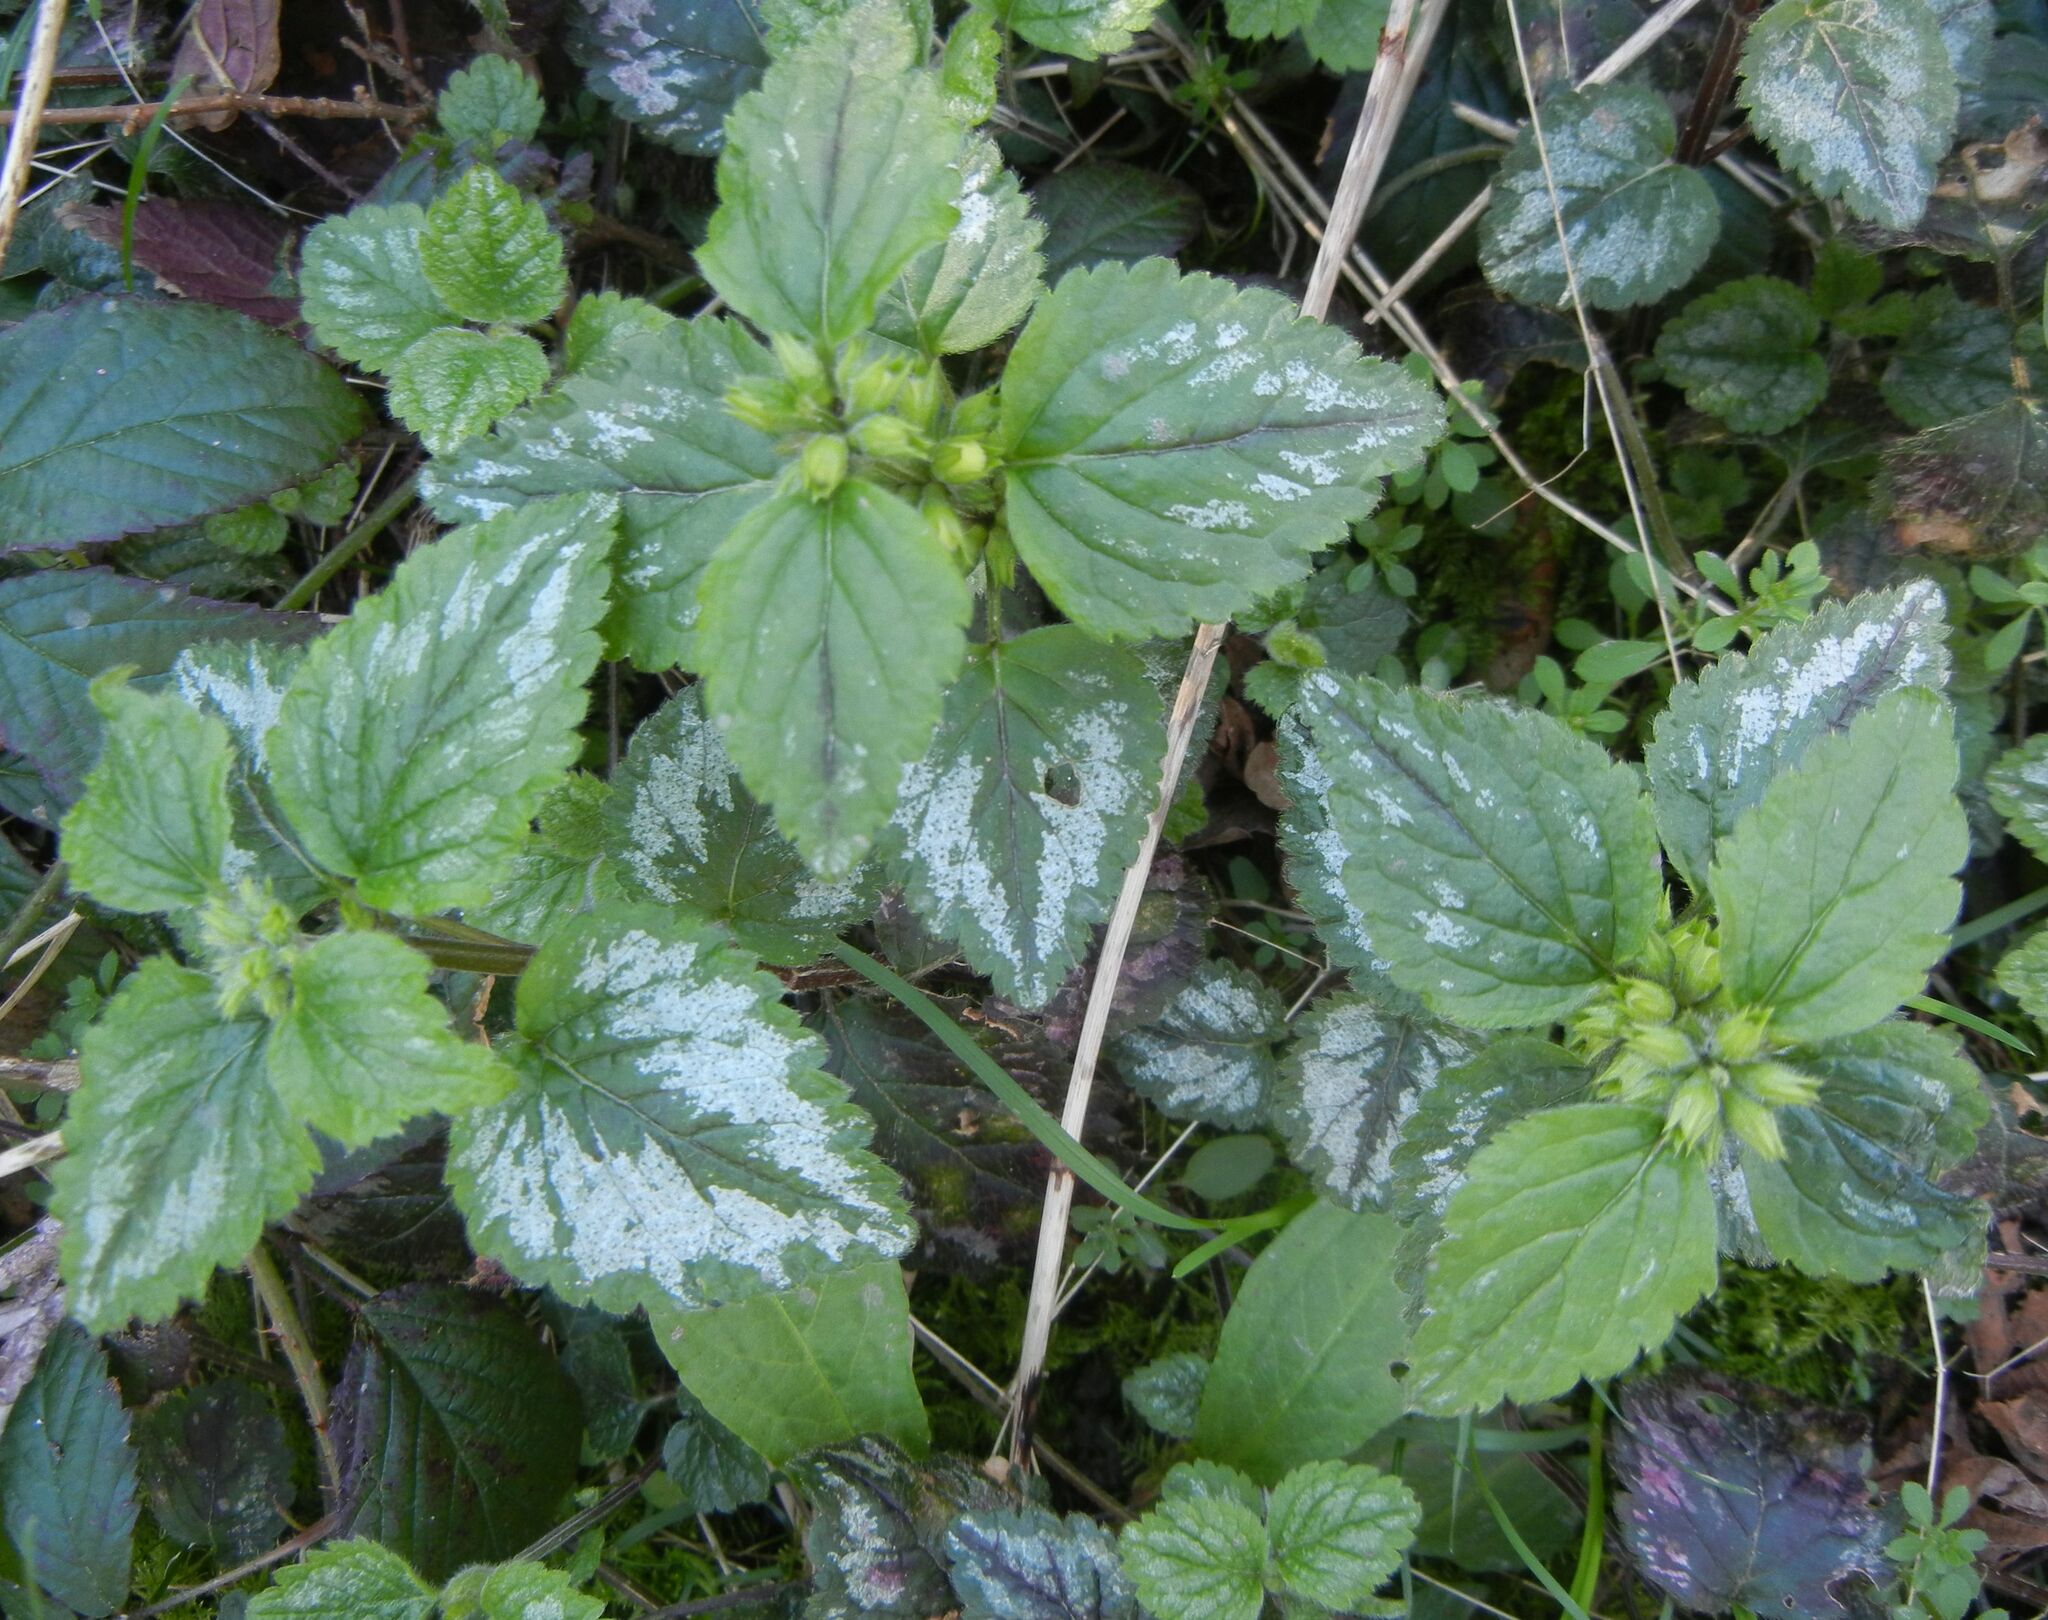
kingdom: Plantae
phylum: Tracheophyta
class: Magnoliopsida
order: Lamiales
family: Lamiaceae
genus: Lamium
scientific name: Lamium galeobdolon
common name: Yellow archangel
